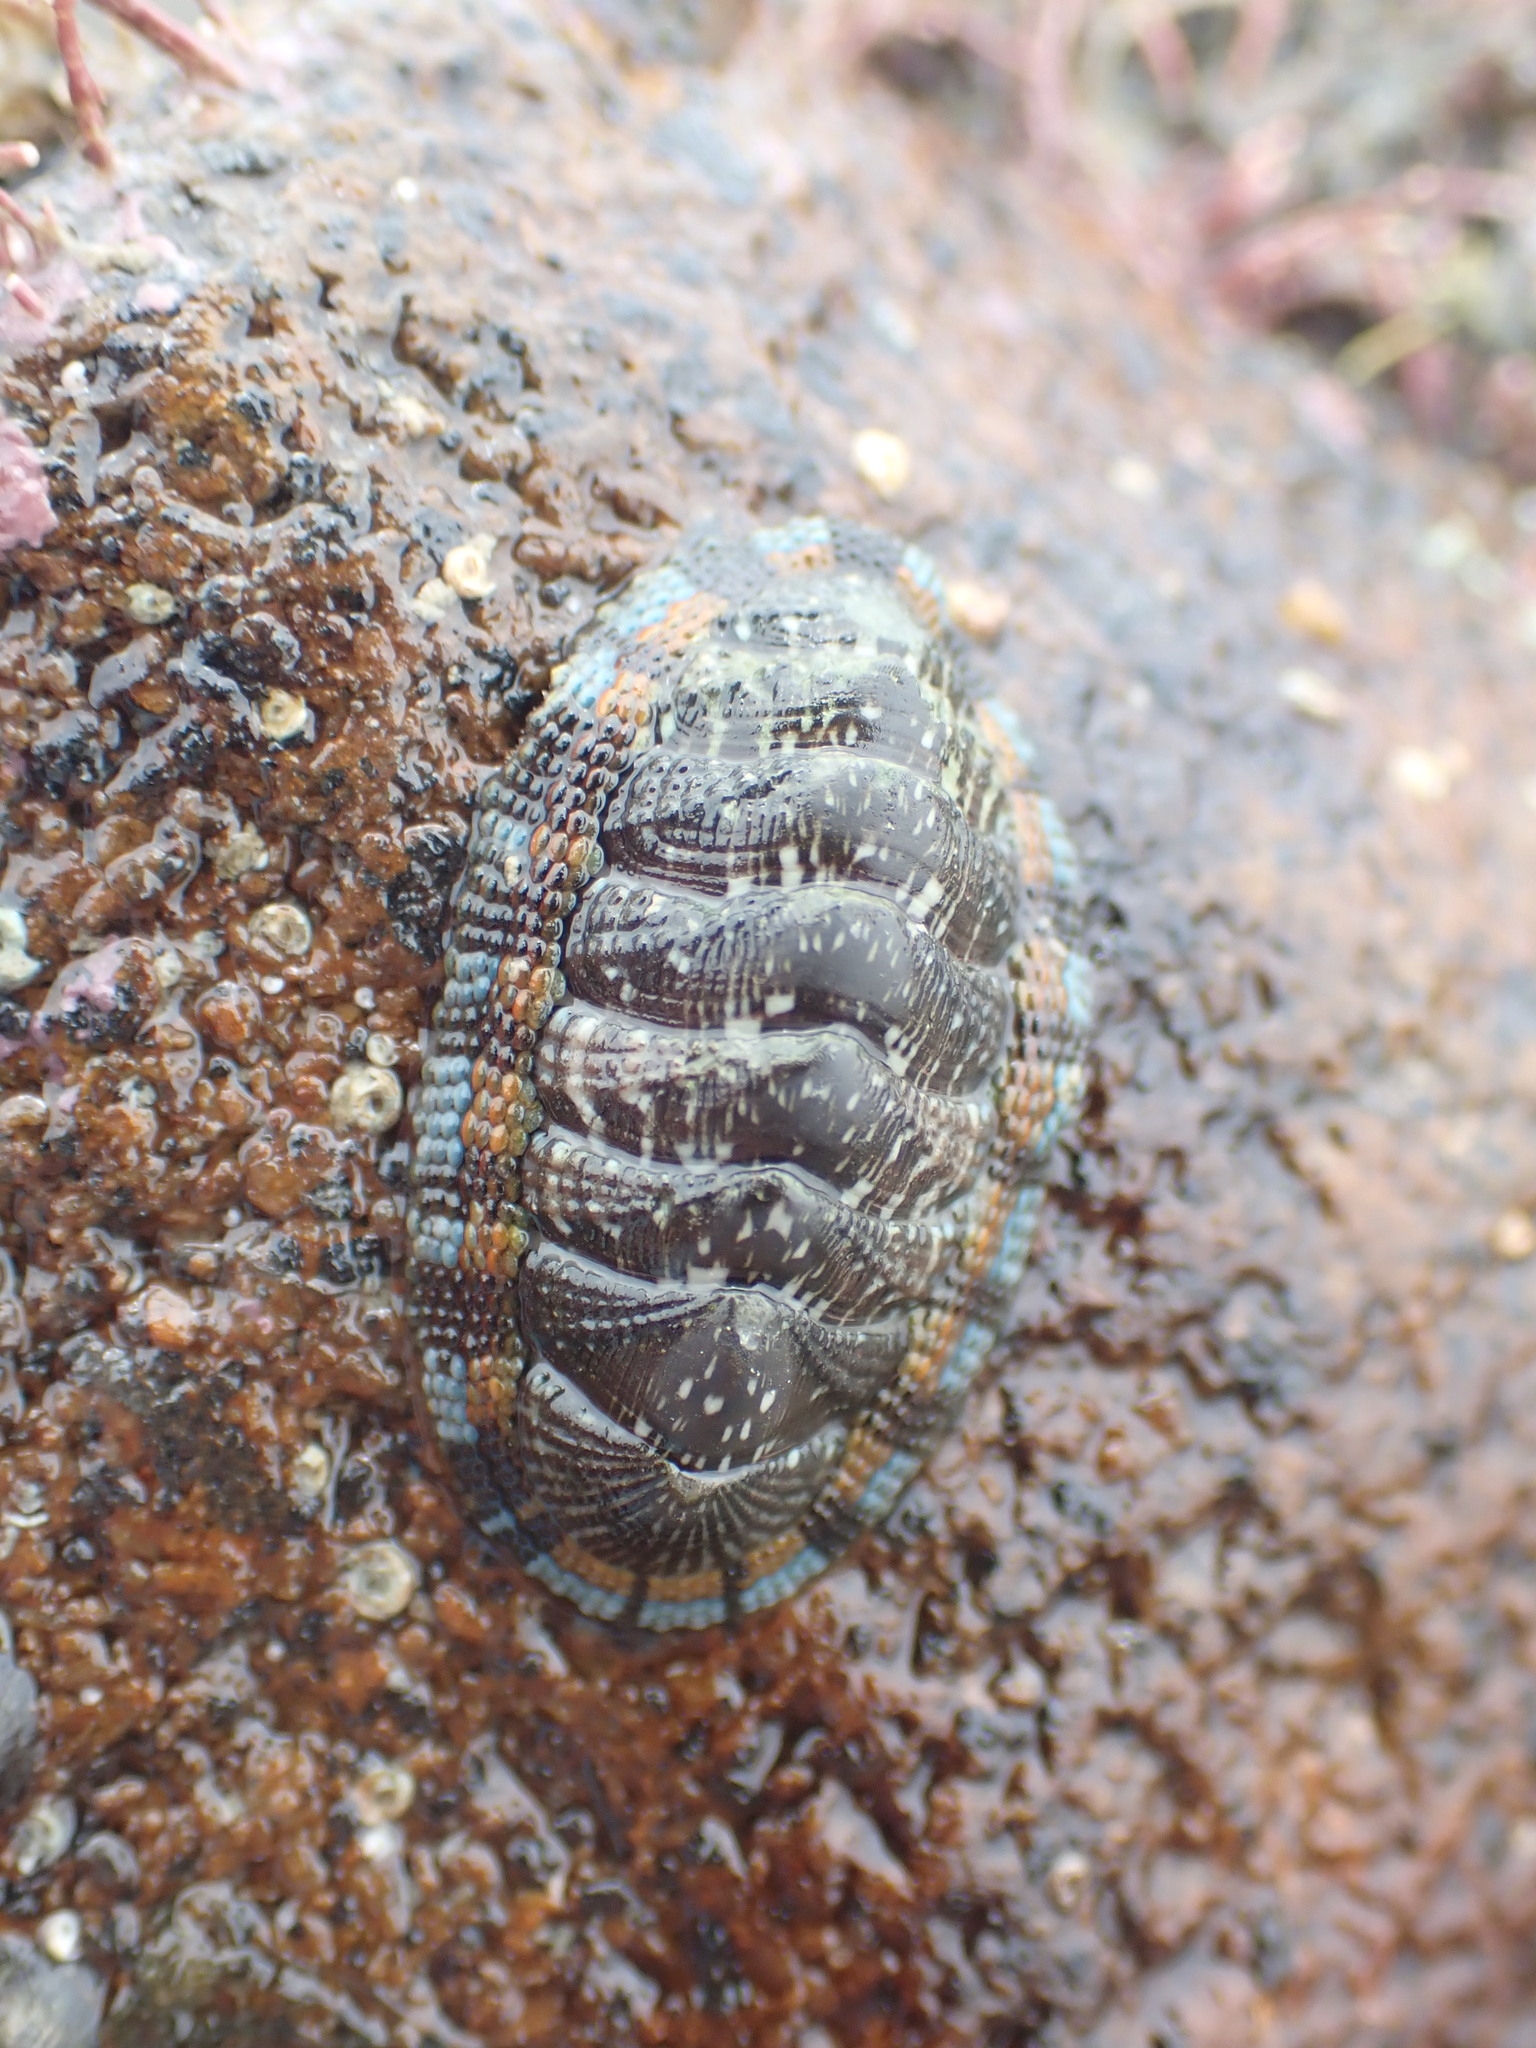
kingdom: Animalia
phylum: Mollusca
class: Polyplacophora
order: Chitonida
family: Chitonidae
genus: Sypharochiton
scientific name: Sypharochiton sinclairi
